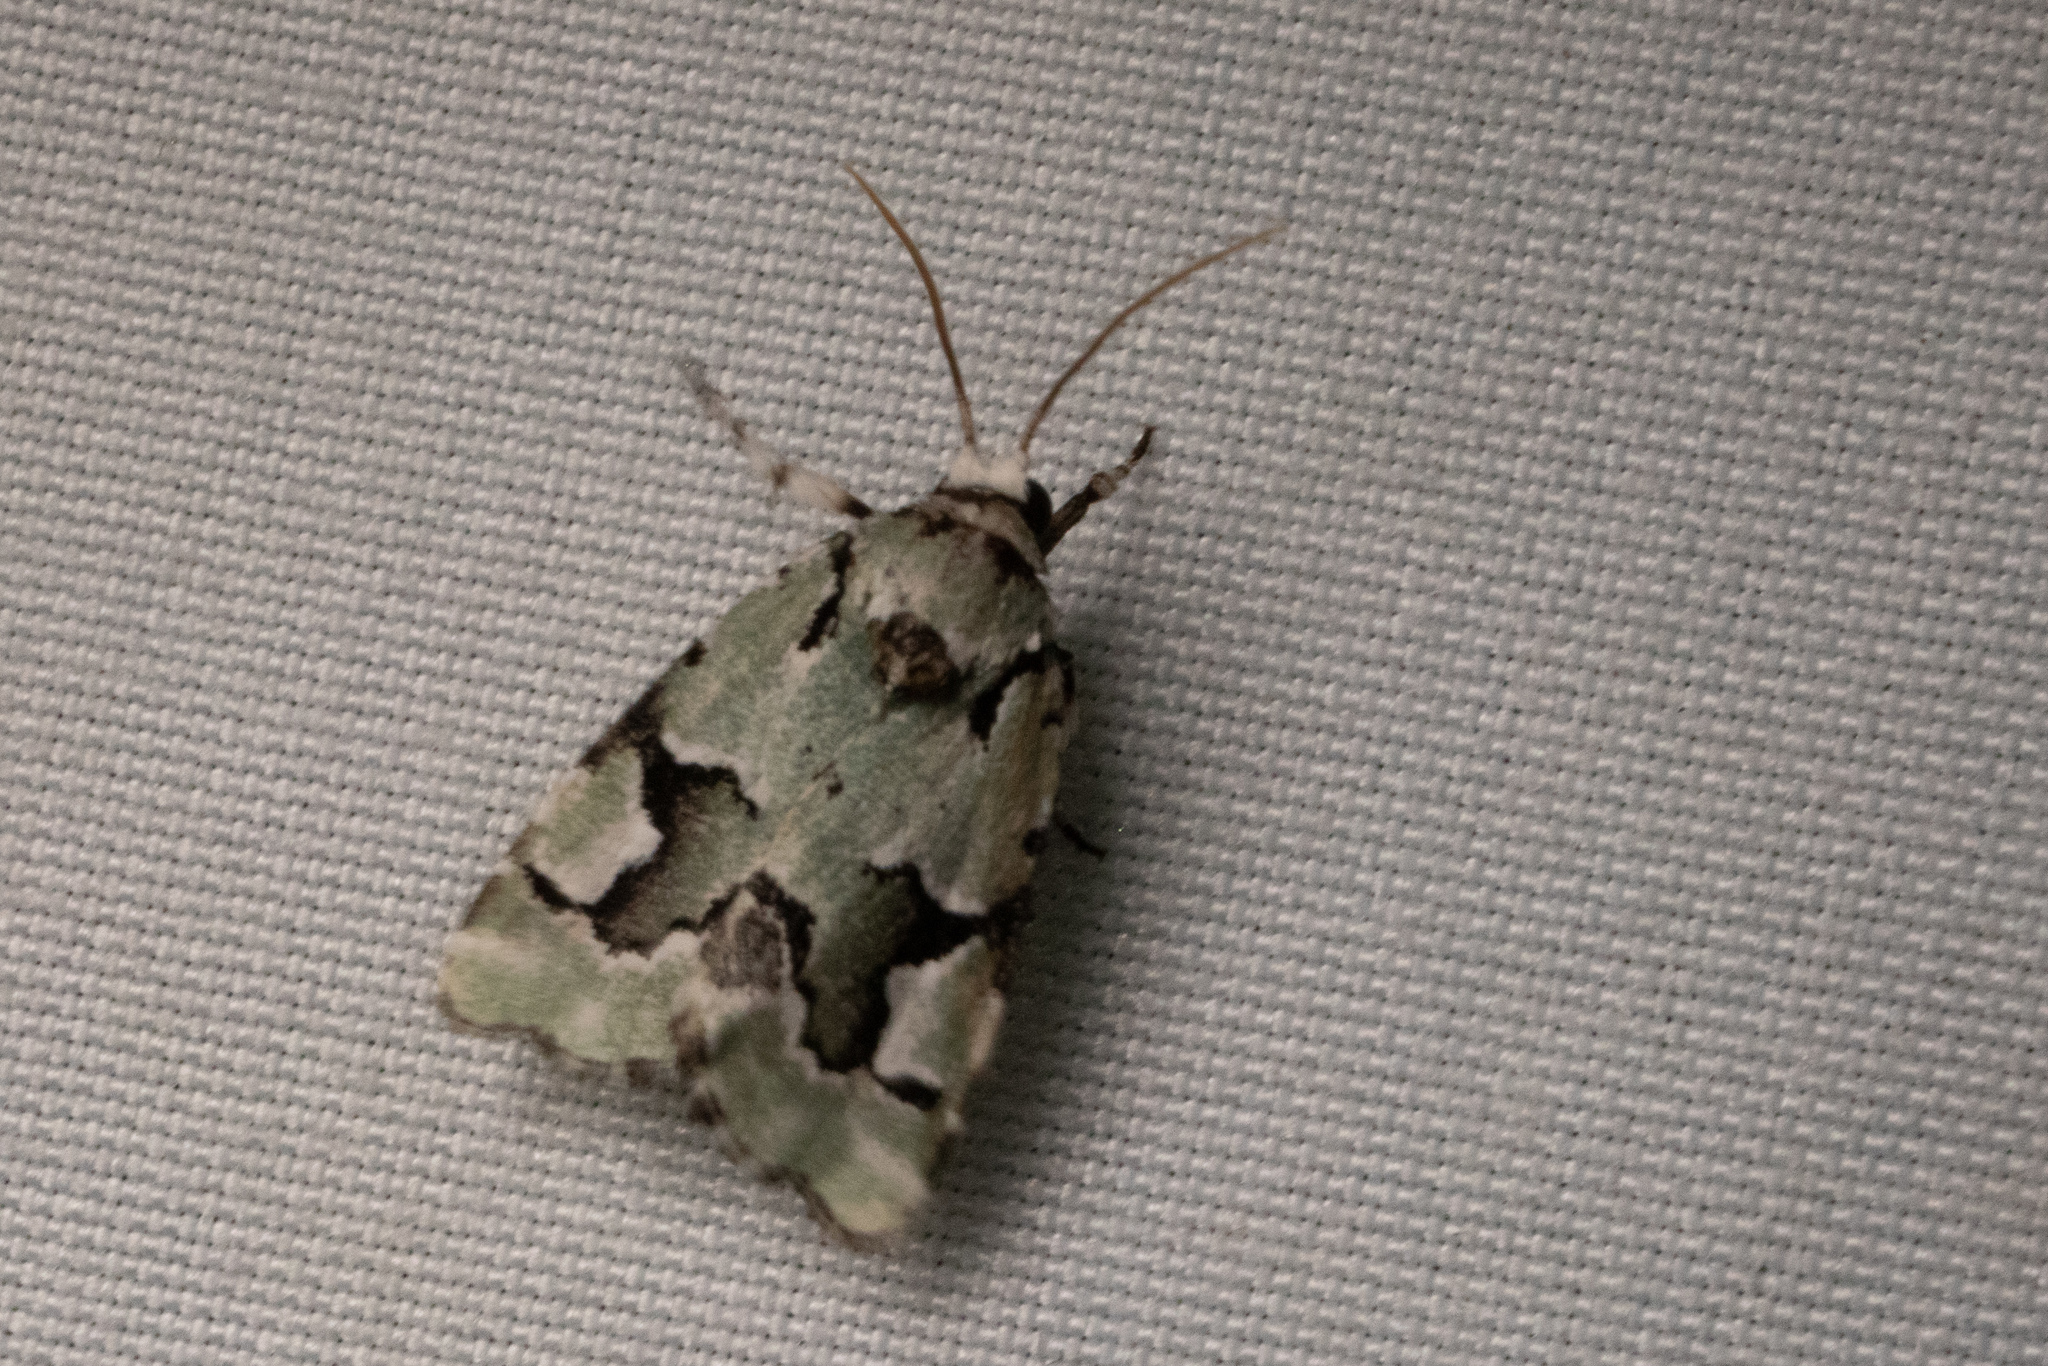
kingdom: Animalia
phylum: Arthropoda
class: Insecta
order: Lepidoptera
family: Noctuidae
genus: Emarginea
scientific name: Emarginea percara
